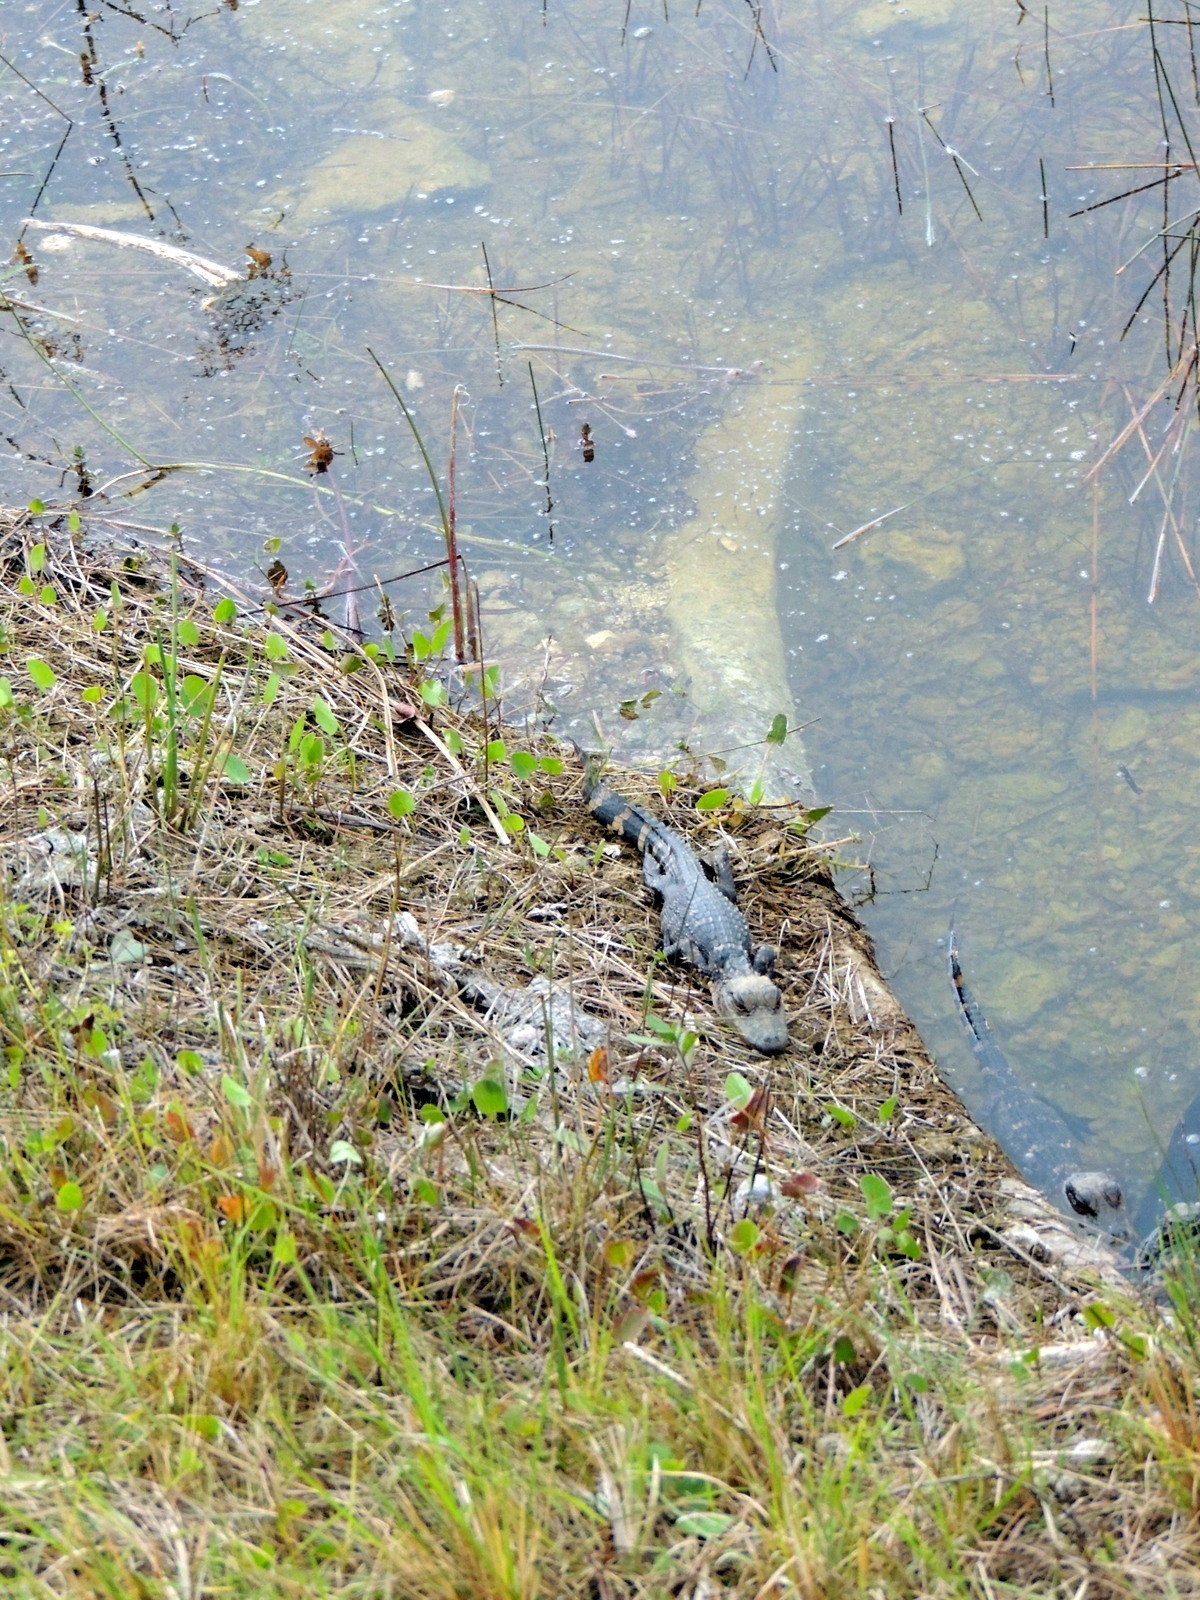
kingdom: Animalia
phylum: Chordata
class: Crocodylia
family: Alligatoridae
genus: Alligator
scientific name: Alligator mississippiensis
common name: American alligator
